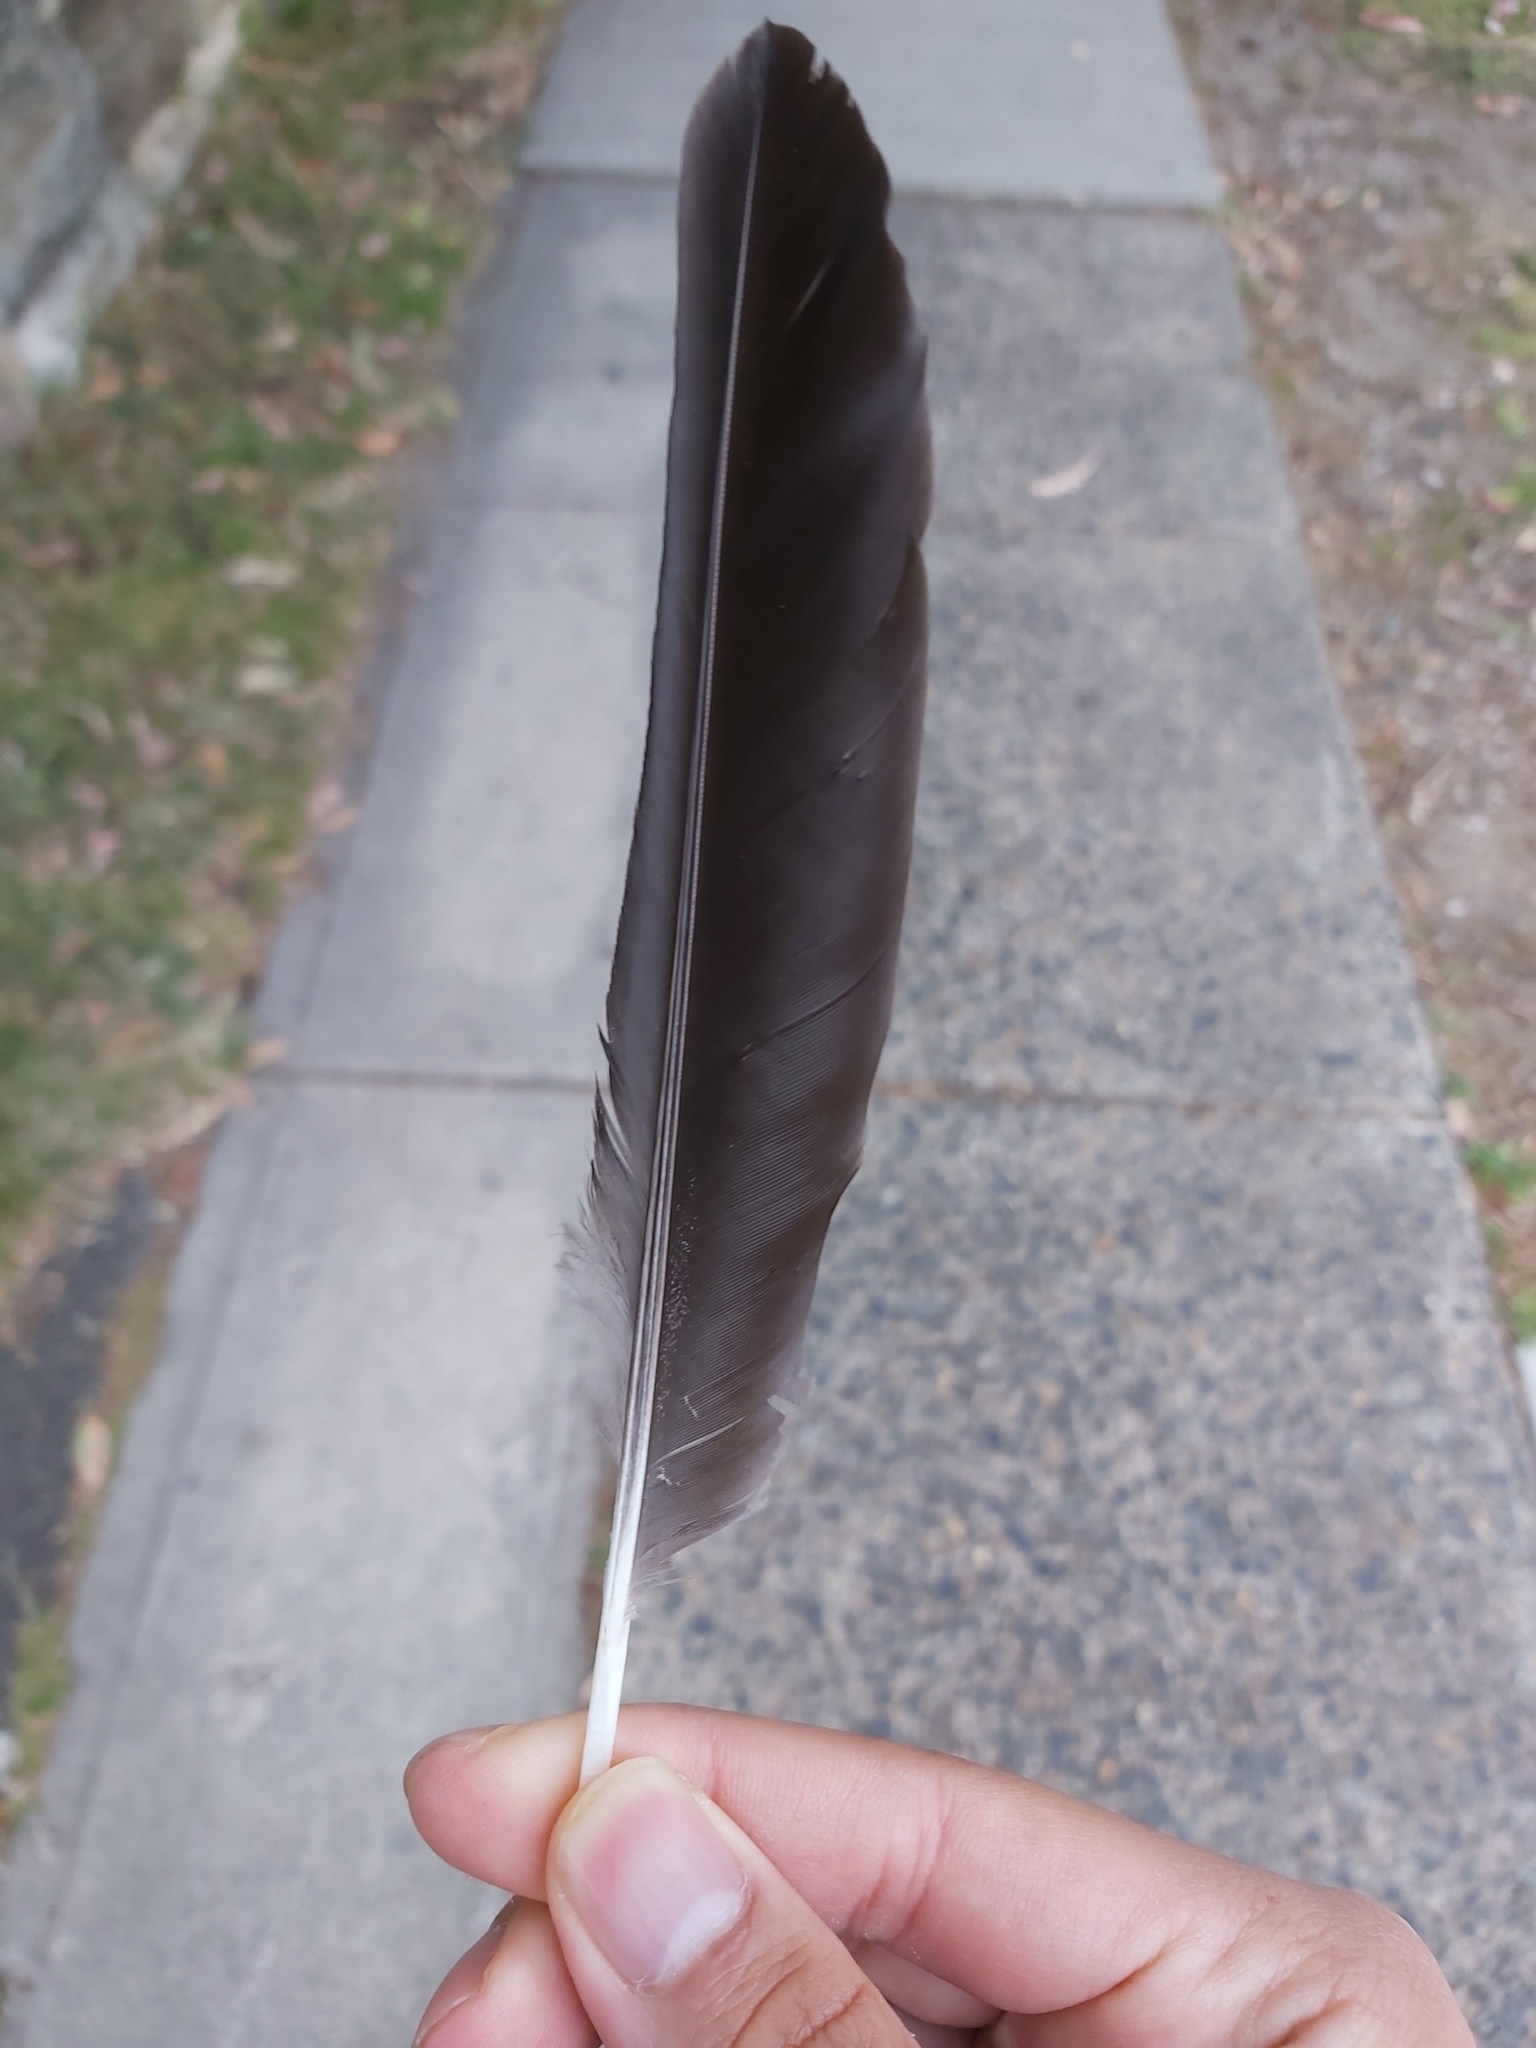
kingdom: Animalia
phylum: Chordata
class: Aves
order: Passeriformes
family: Cracticidae
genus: Gymnorhina
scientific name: Gymnorhina tibicen
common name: Australian magpie
